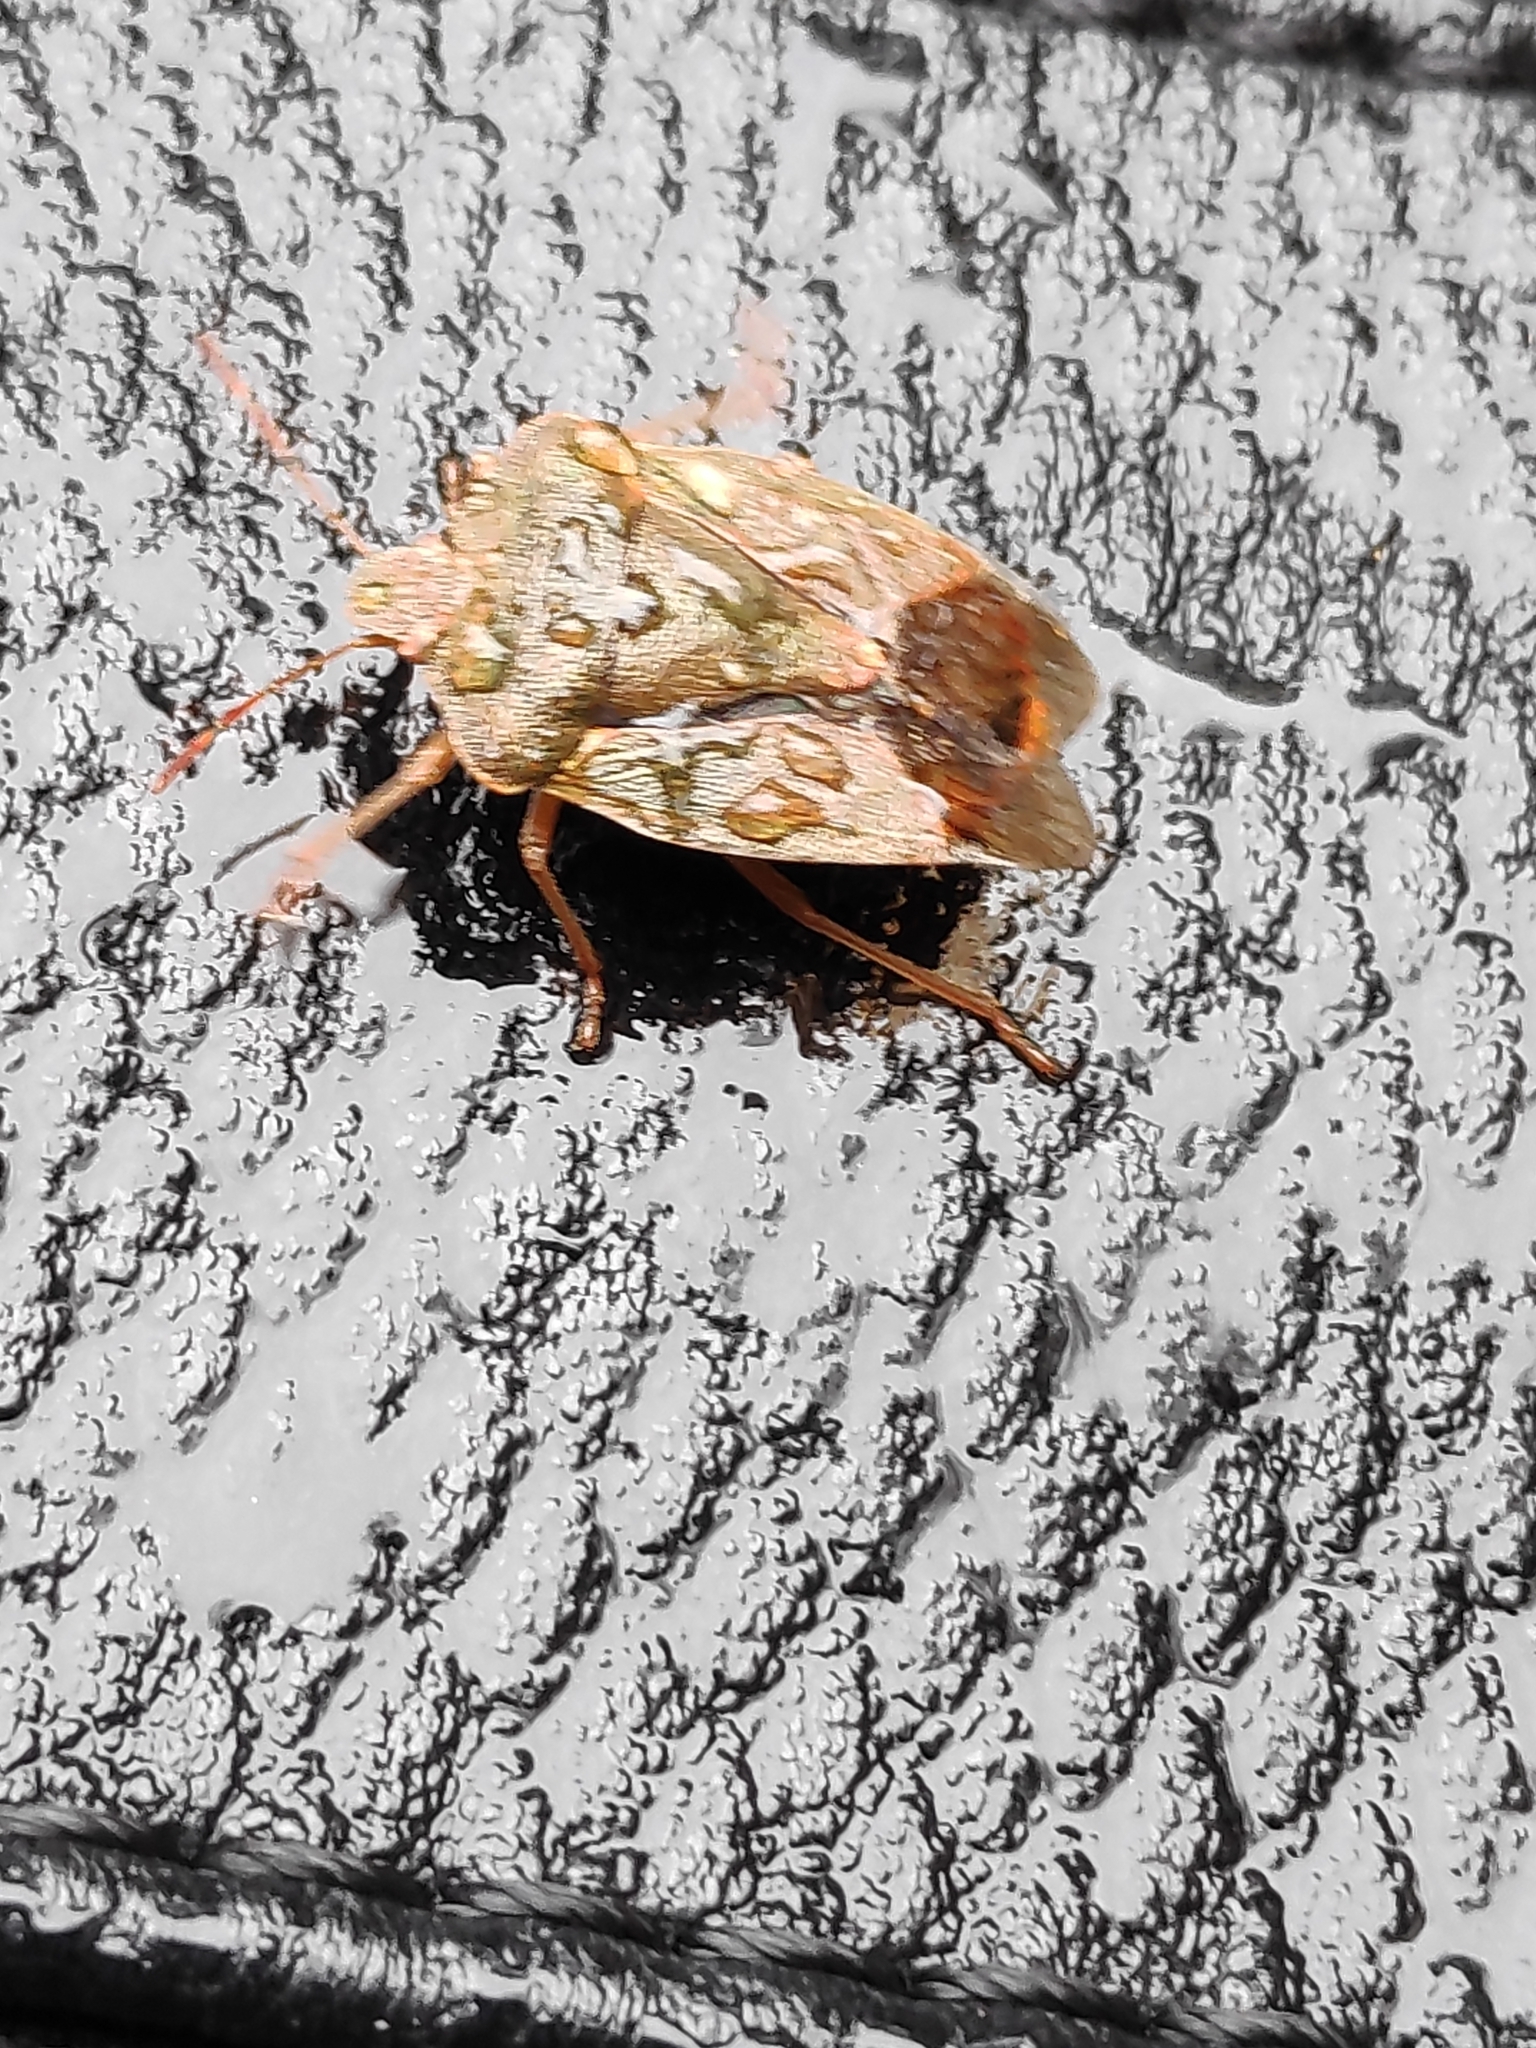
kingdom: Animalia
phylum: Arthropoda
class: Insecta
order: Hemiptera
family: Pentatomidae
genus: Palomena
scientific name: Palomena prasina
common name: Green shieldbug
